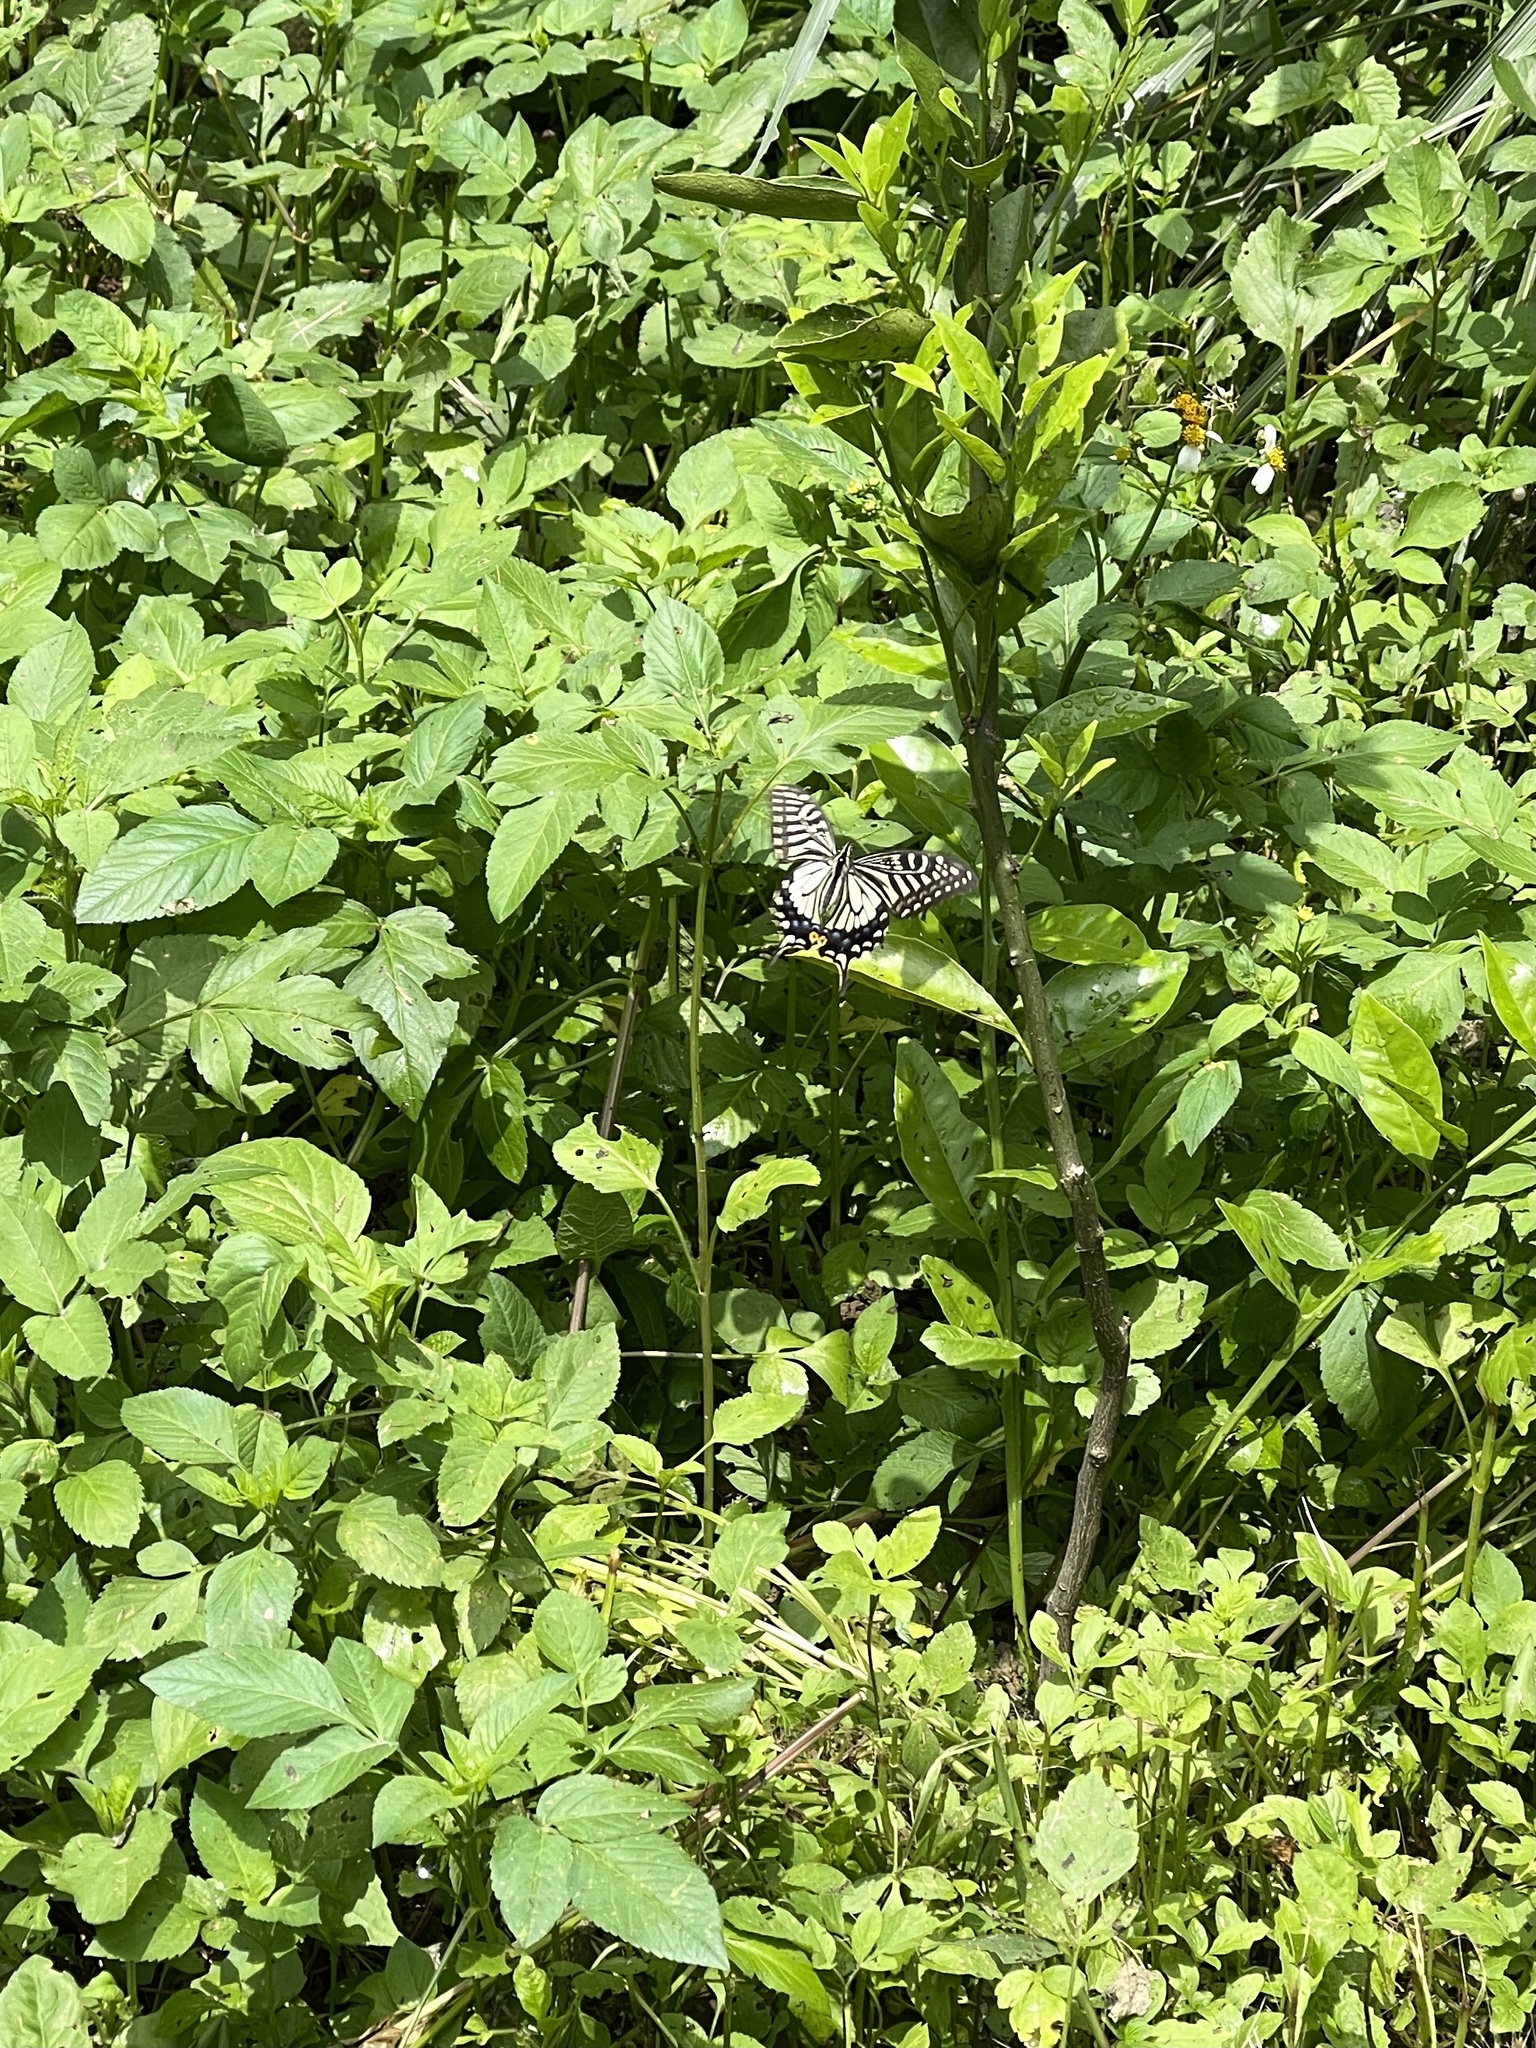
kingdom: Animalia
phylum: Arthropoda
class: Insecta
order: Lepidoptera
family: Papilionidae
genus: Papilio
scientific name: Papilio xuthus
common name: Asian swallowtail
